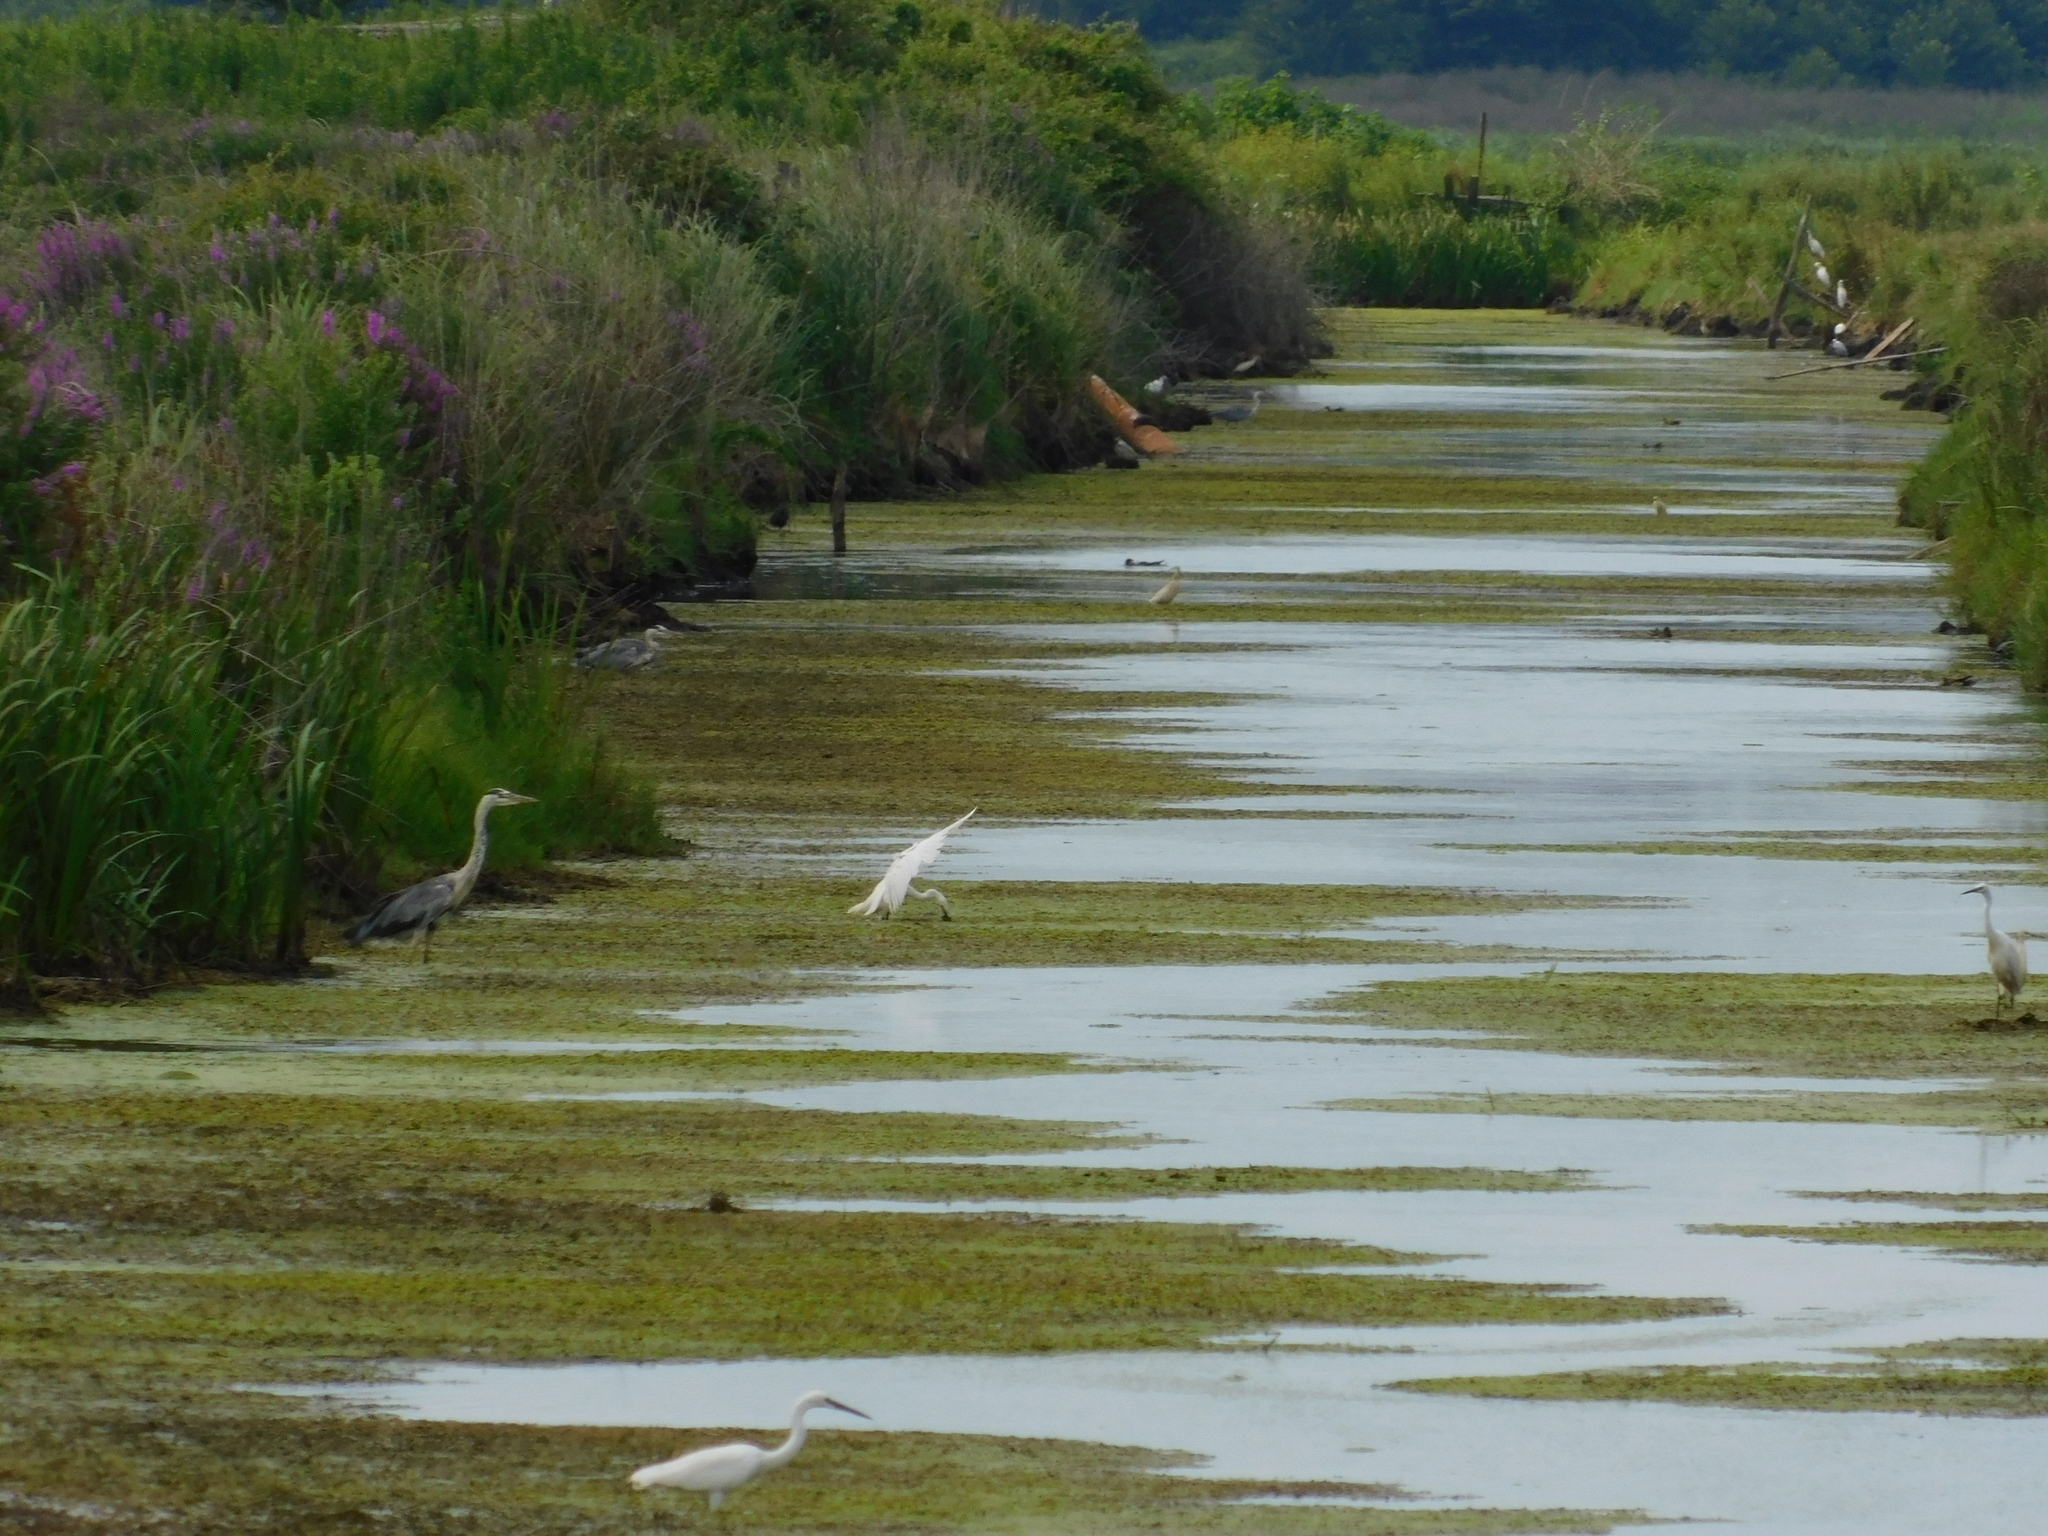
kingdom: Animalia
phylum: Chordata
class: Aves
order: Pelecaniformes
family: Ardeidae
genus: Egretta
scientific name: Egretta garzetta
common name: Little egret
